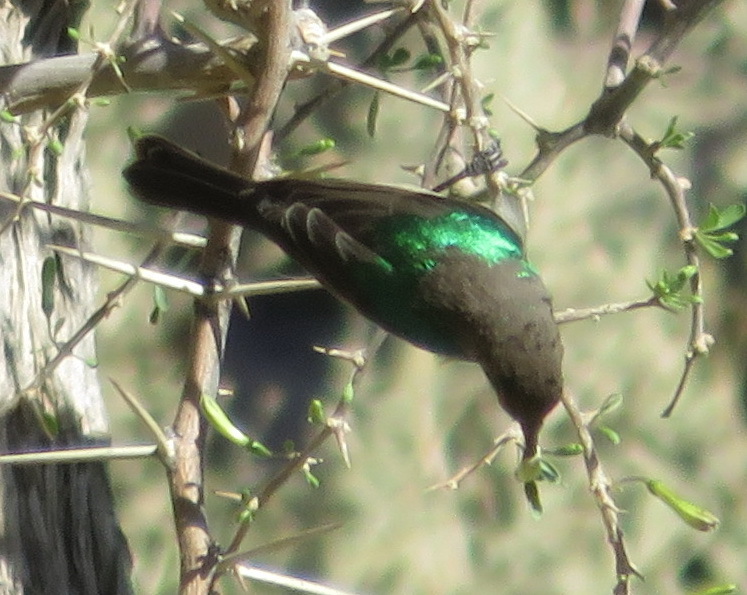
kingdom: Animalia
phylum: Chordata
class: Aves
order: Passeriformes
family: Nectariniidae
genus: Cinnyris
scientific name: Cinnyris chalybeus
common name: Southern double-collared sunbird
